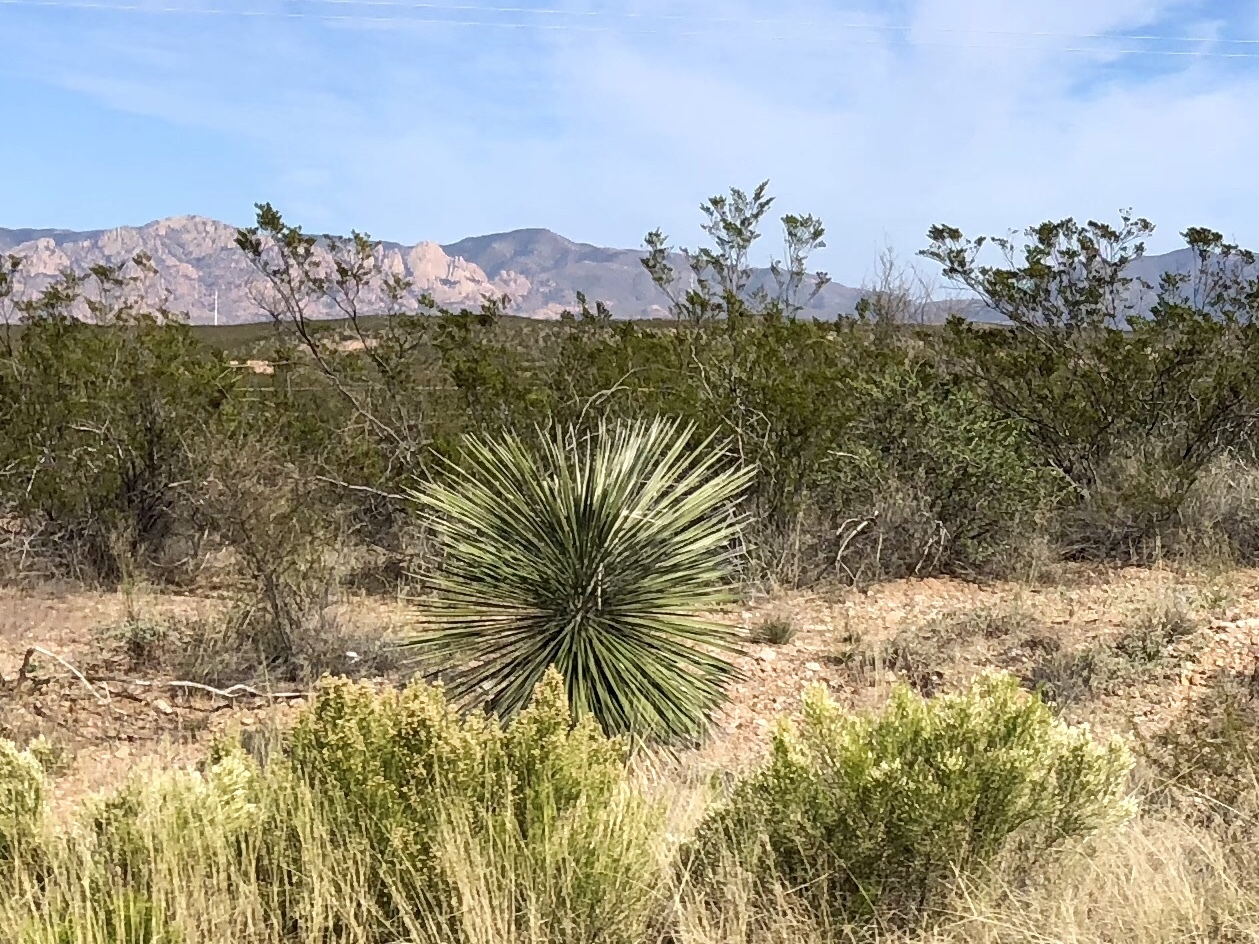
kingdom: Plantae
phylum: Tracheophyta
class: Liliopsida
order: Asparagales
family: Asparagaceae
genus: Yucca
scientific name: Yucca elata
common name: Palmella
